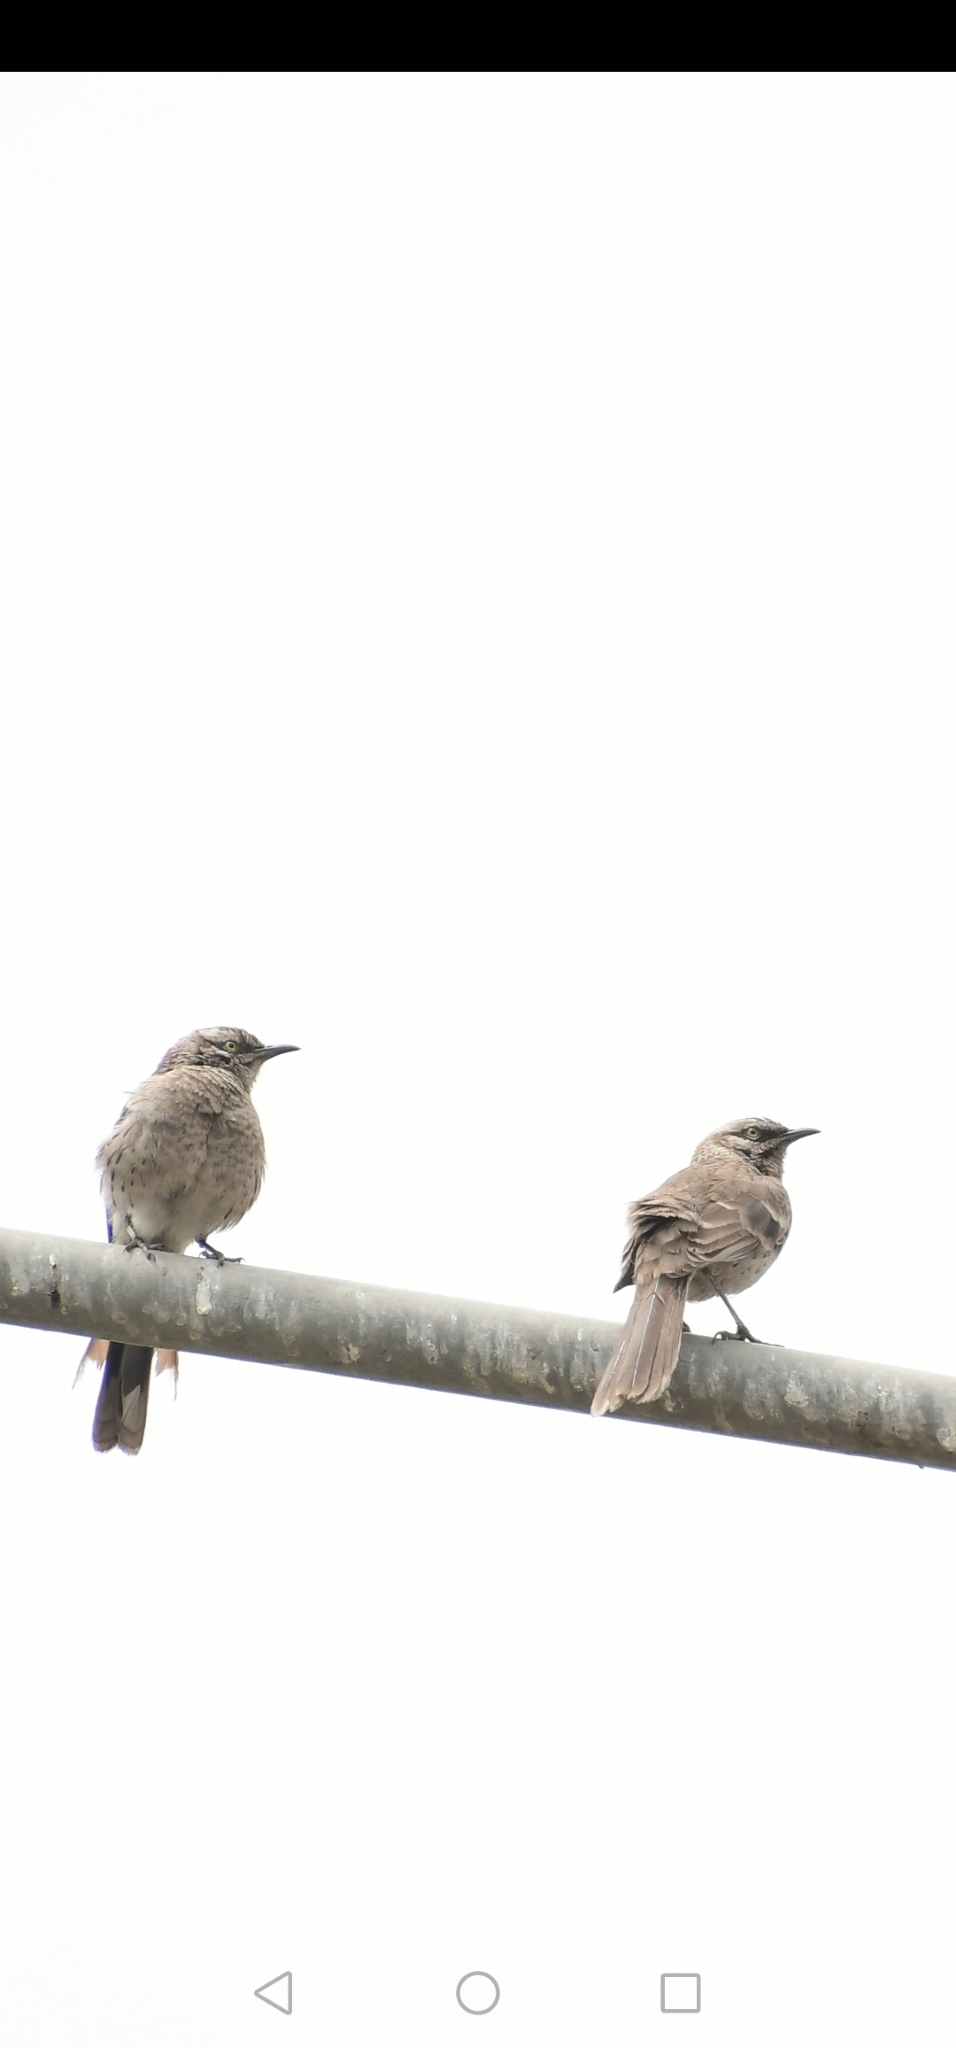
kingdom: Animalia
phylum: Chordata
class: Aves
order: Passeriformes
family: Mimidae
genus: Mimus
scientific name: Mimus longicaudatus
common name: Long-tailed mockingbird
